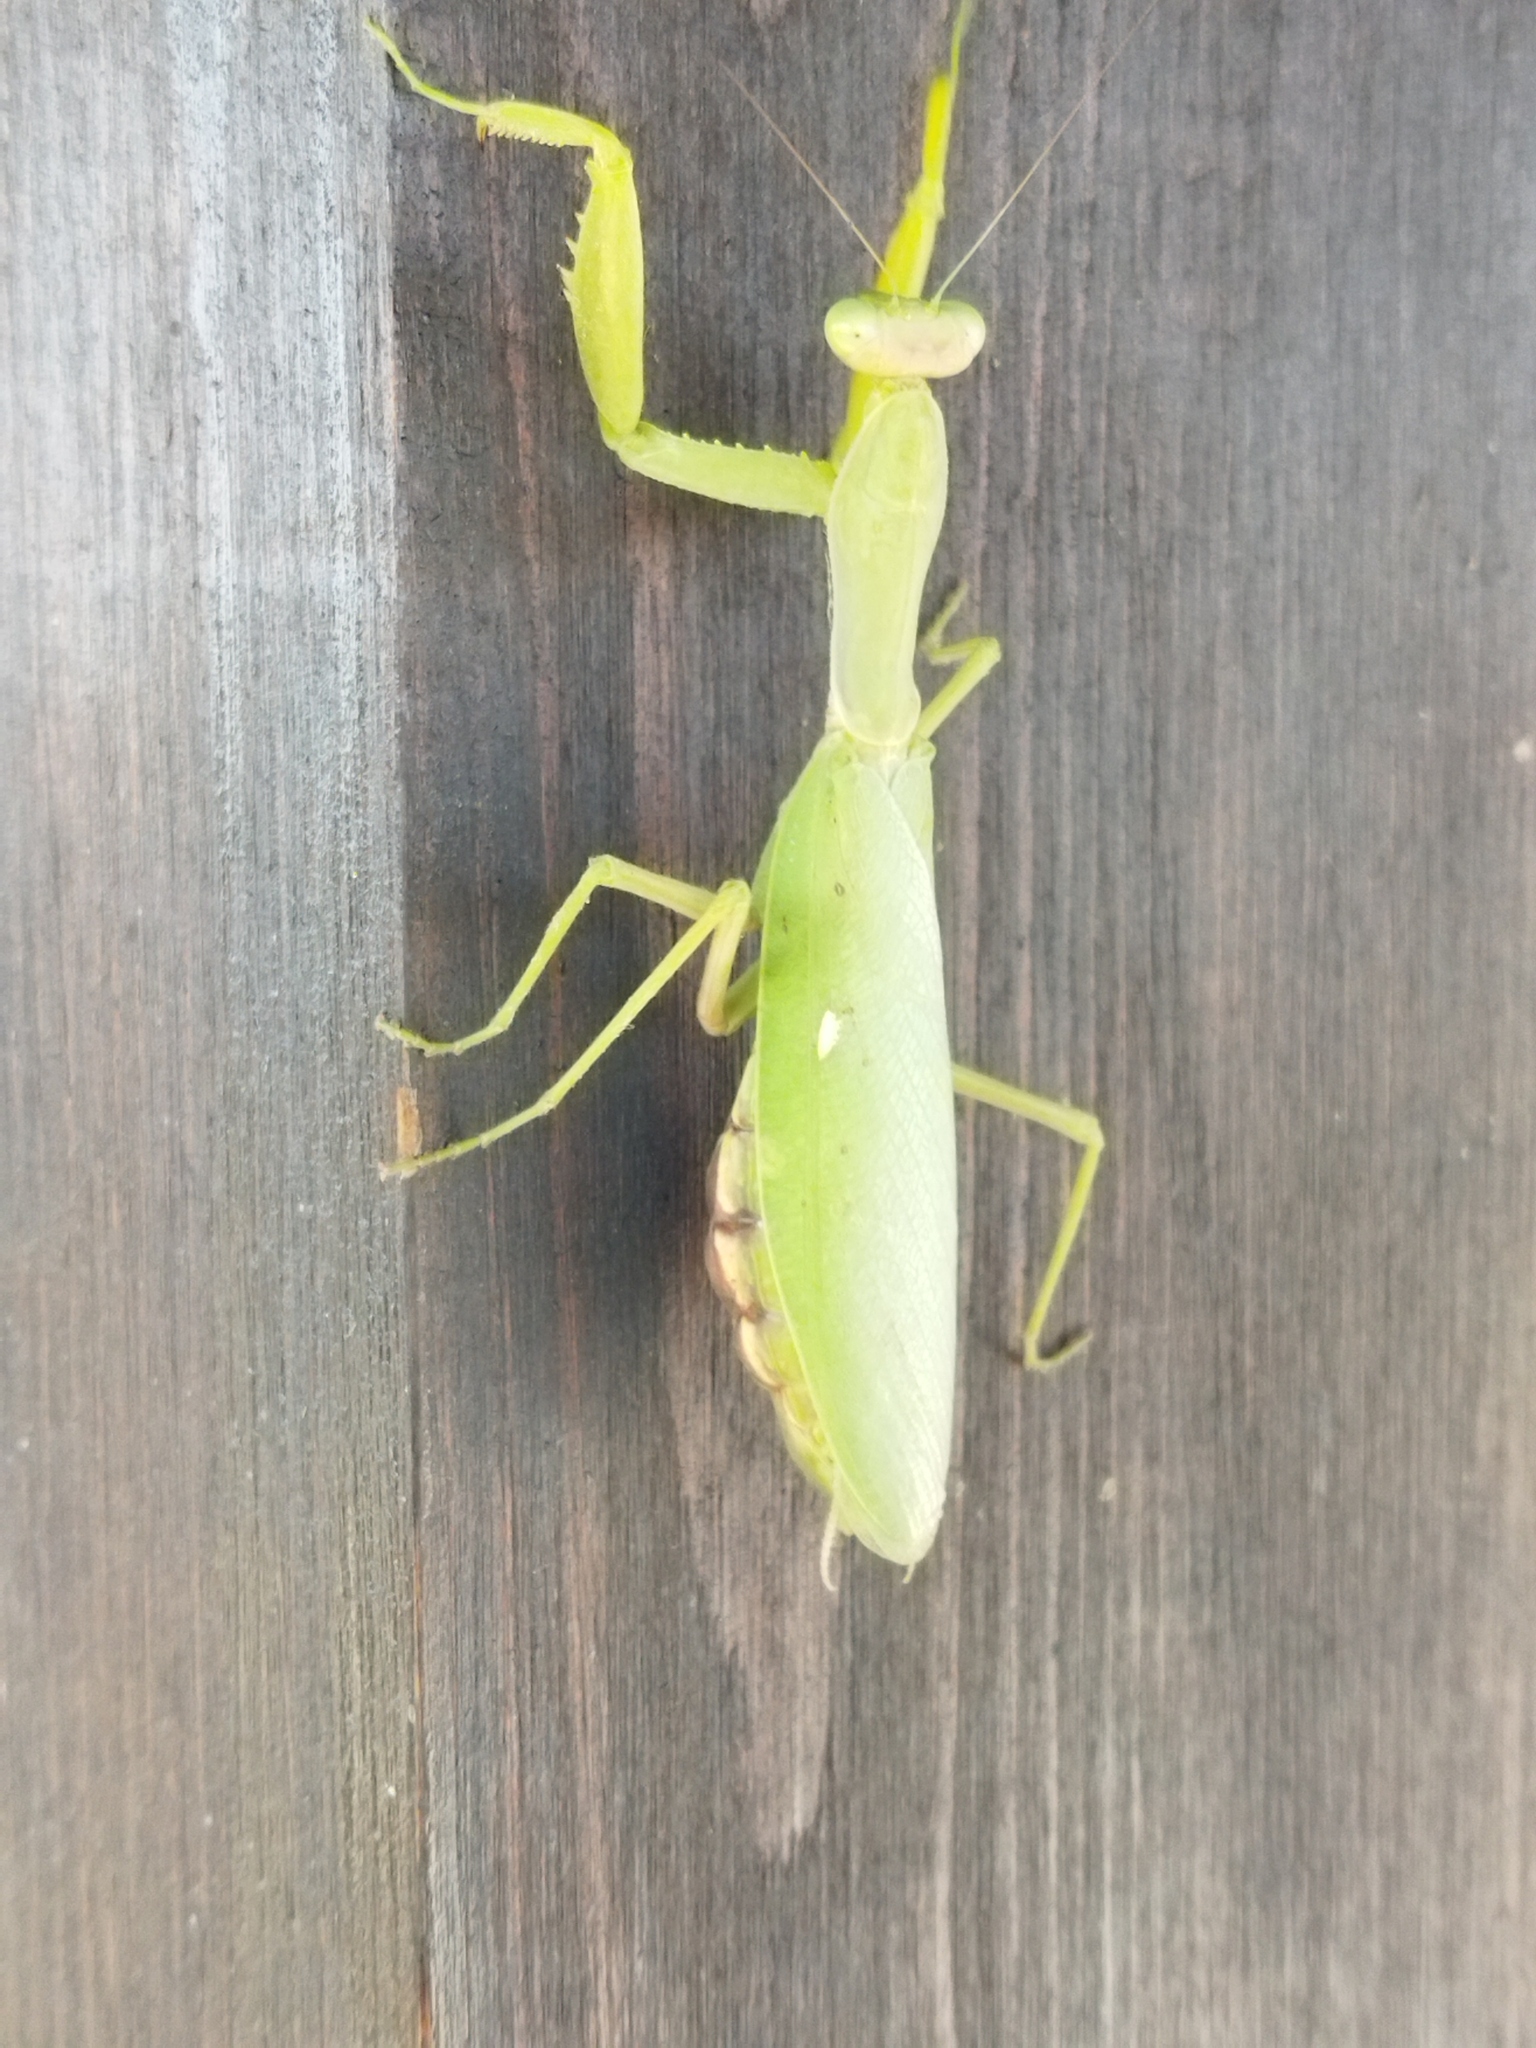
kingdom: Animalia
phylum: Arthropoda
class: Insecta
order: Mantodea
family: Mantidae
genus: Hierodula
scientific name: Hierodula transcaucasica
